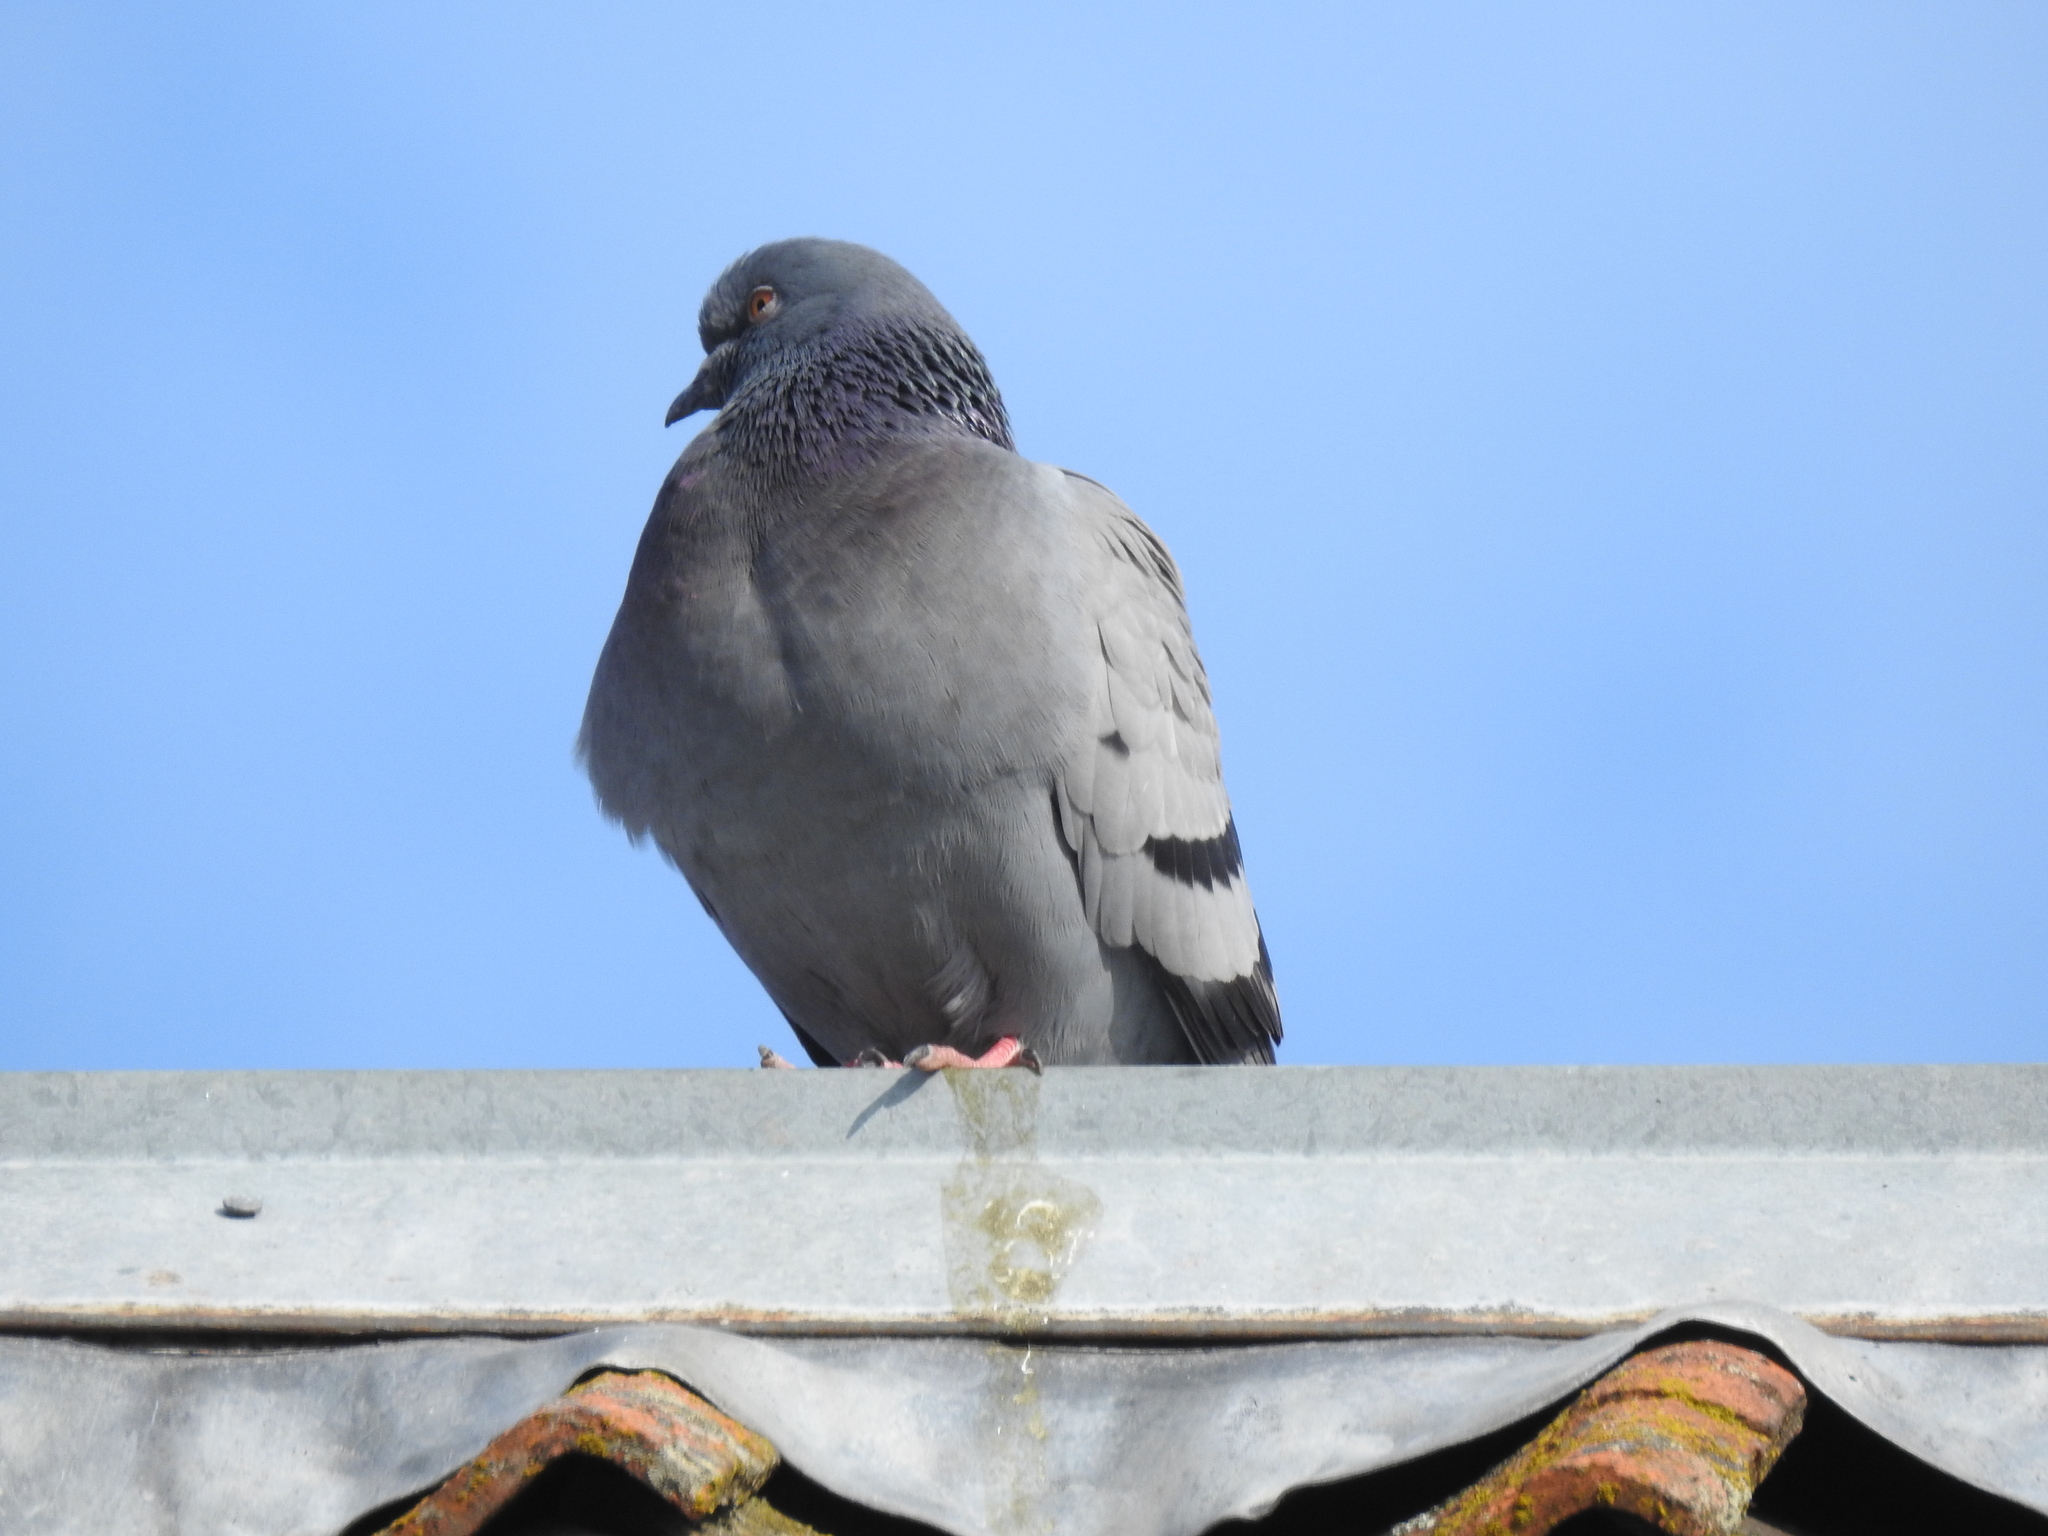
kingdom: Animalia
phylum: Chordata
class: Aves
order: Columbiformes
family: Columbidae
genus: Columba
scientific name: Columba livia
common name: Rock pigeon
